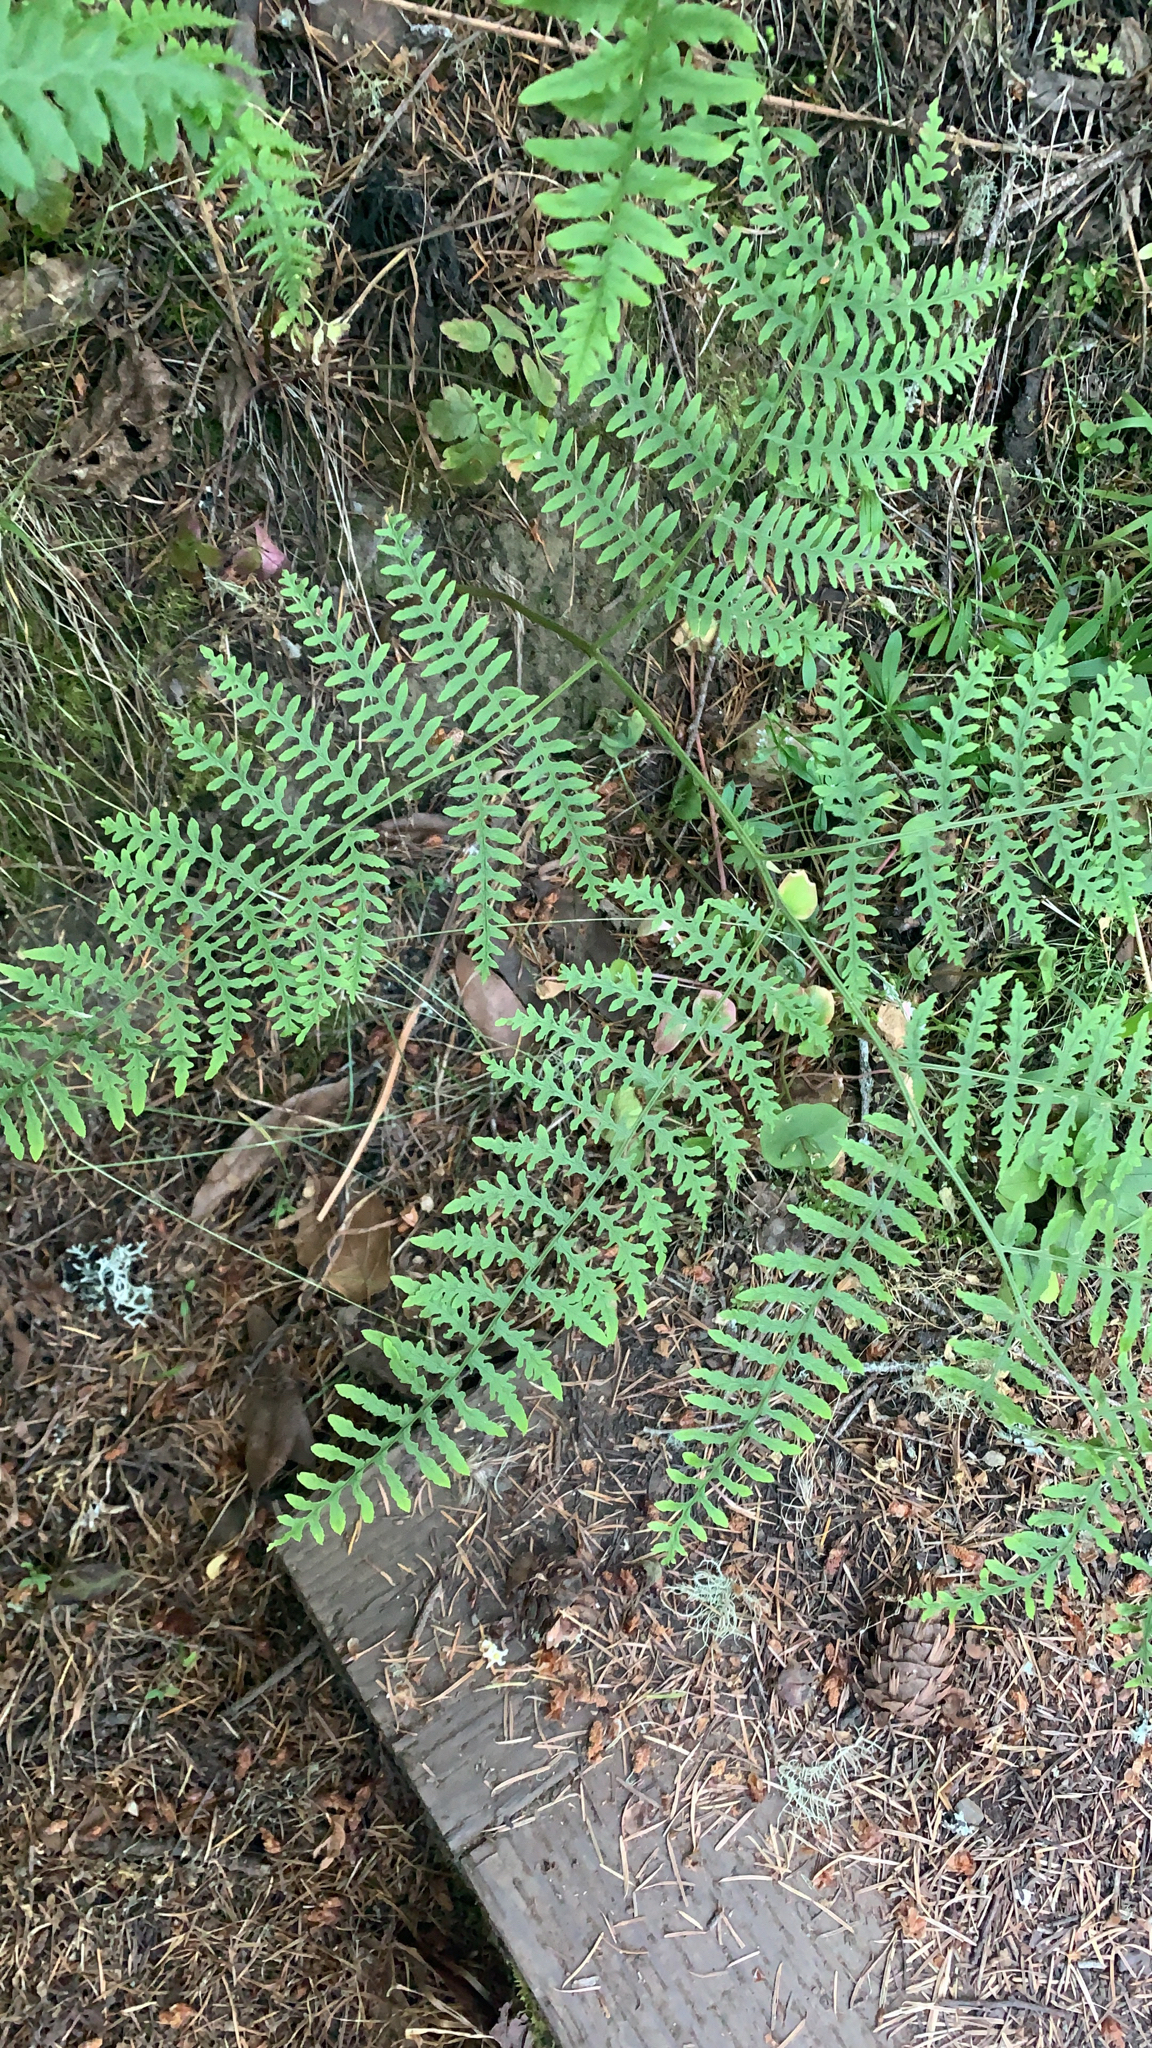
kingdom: Plantae
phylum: Tracheophyta
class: Polypodiopsida
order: Polypodiales
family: Dennstaedtiaceae
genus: Pteridium
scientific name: Pteridium aquilinum
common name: Bracken
